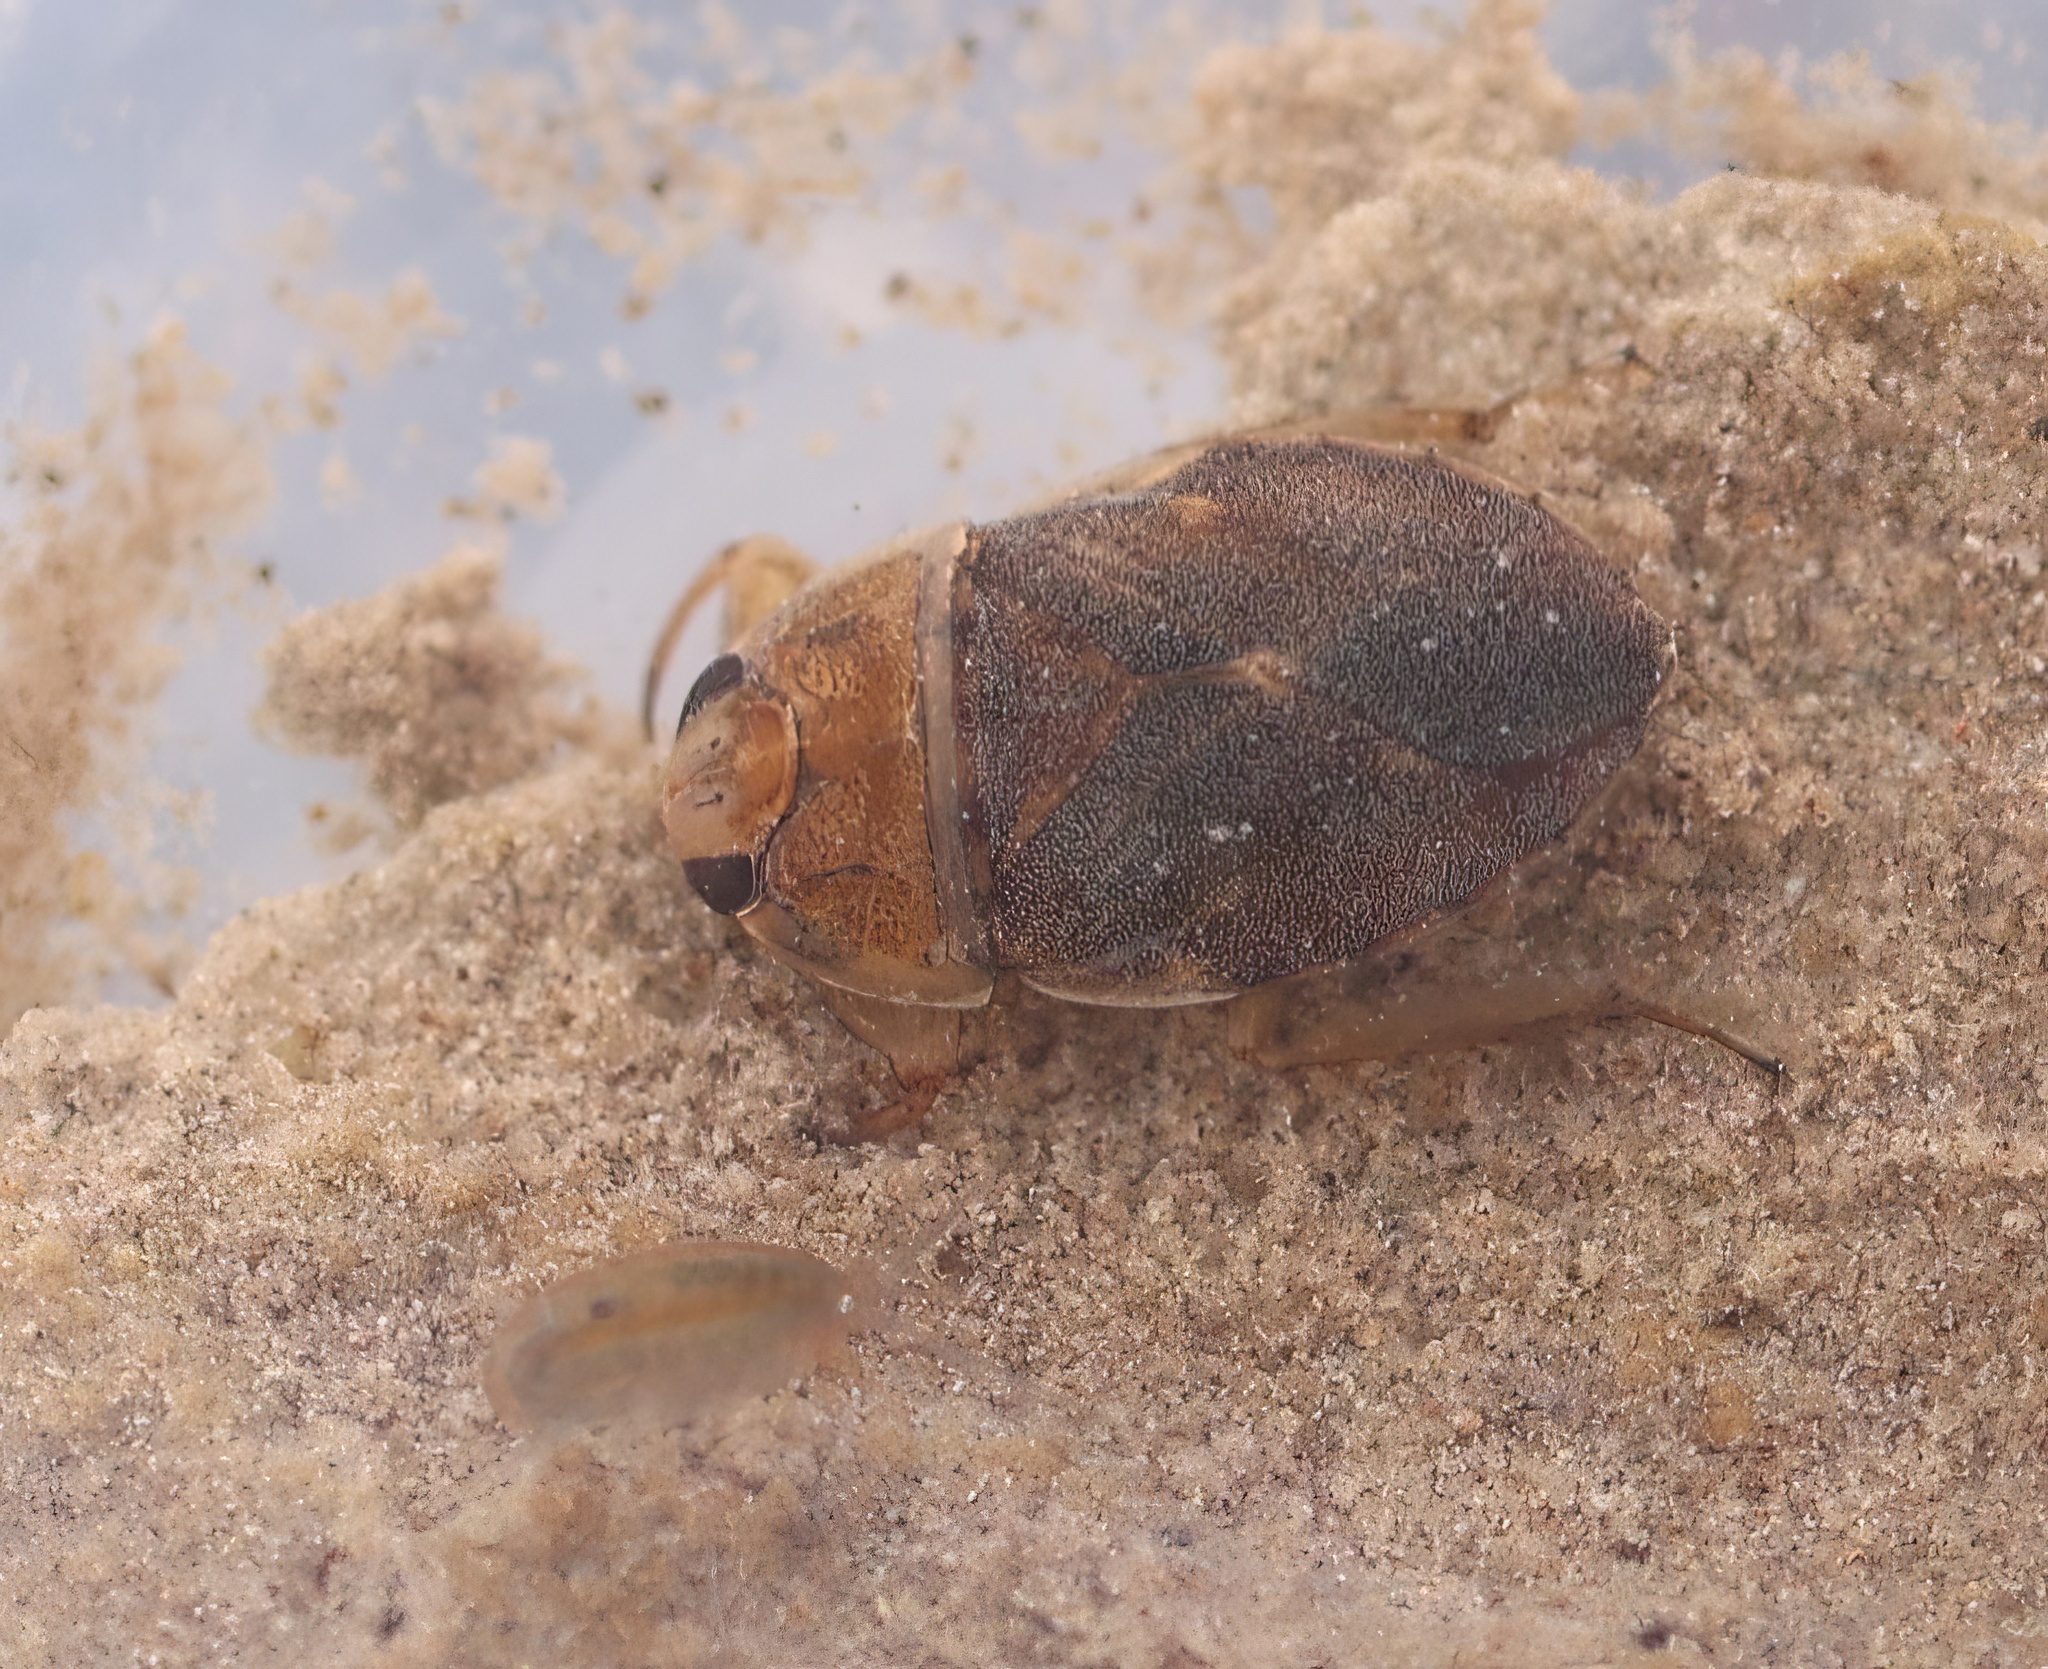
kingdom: Animalia
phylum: Arthropoda
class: Insecta
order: Hemiptera
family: Naucoridae
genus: Ambrysus
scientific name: Ambrysus funebris
